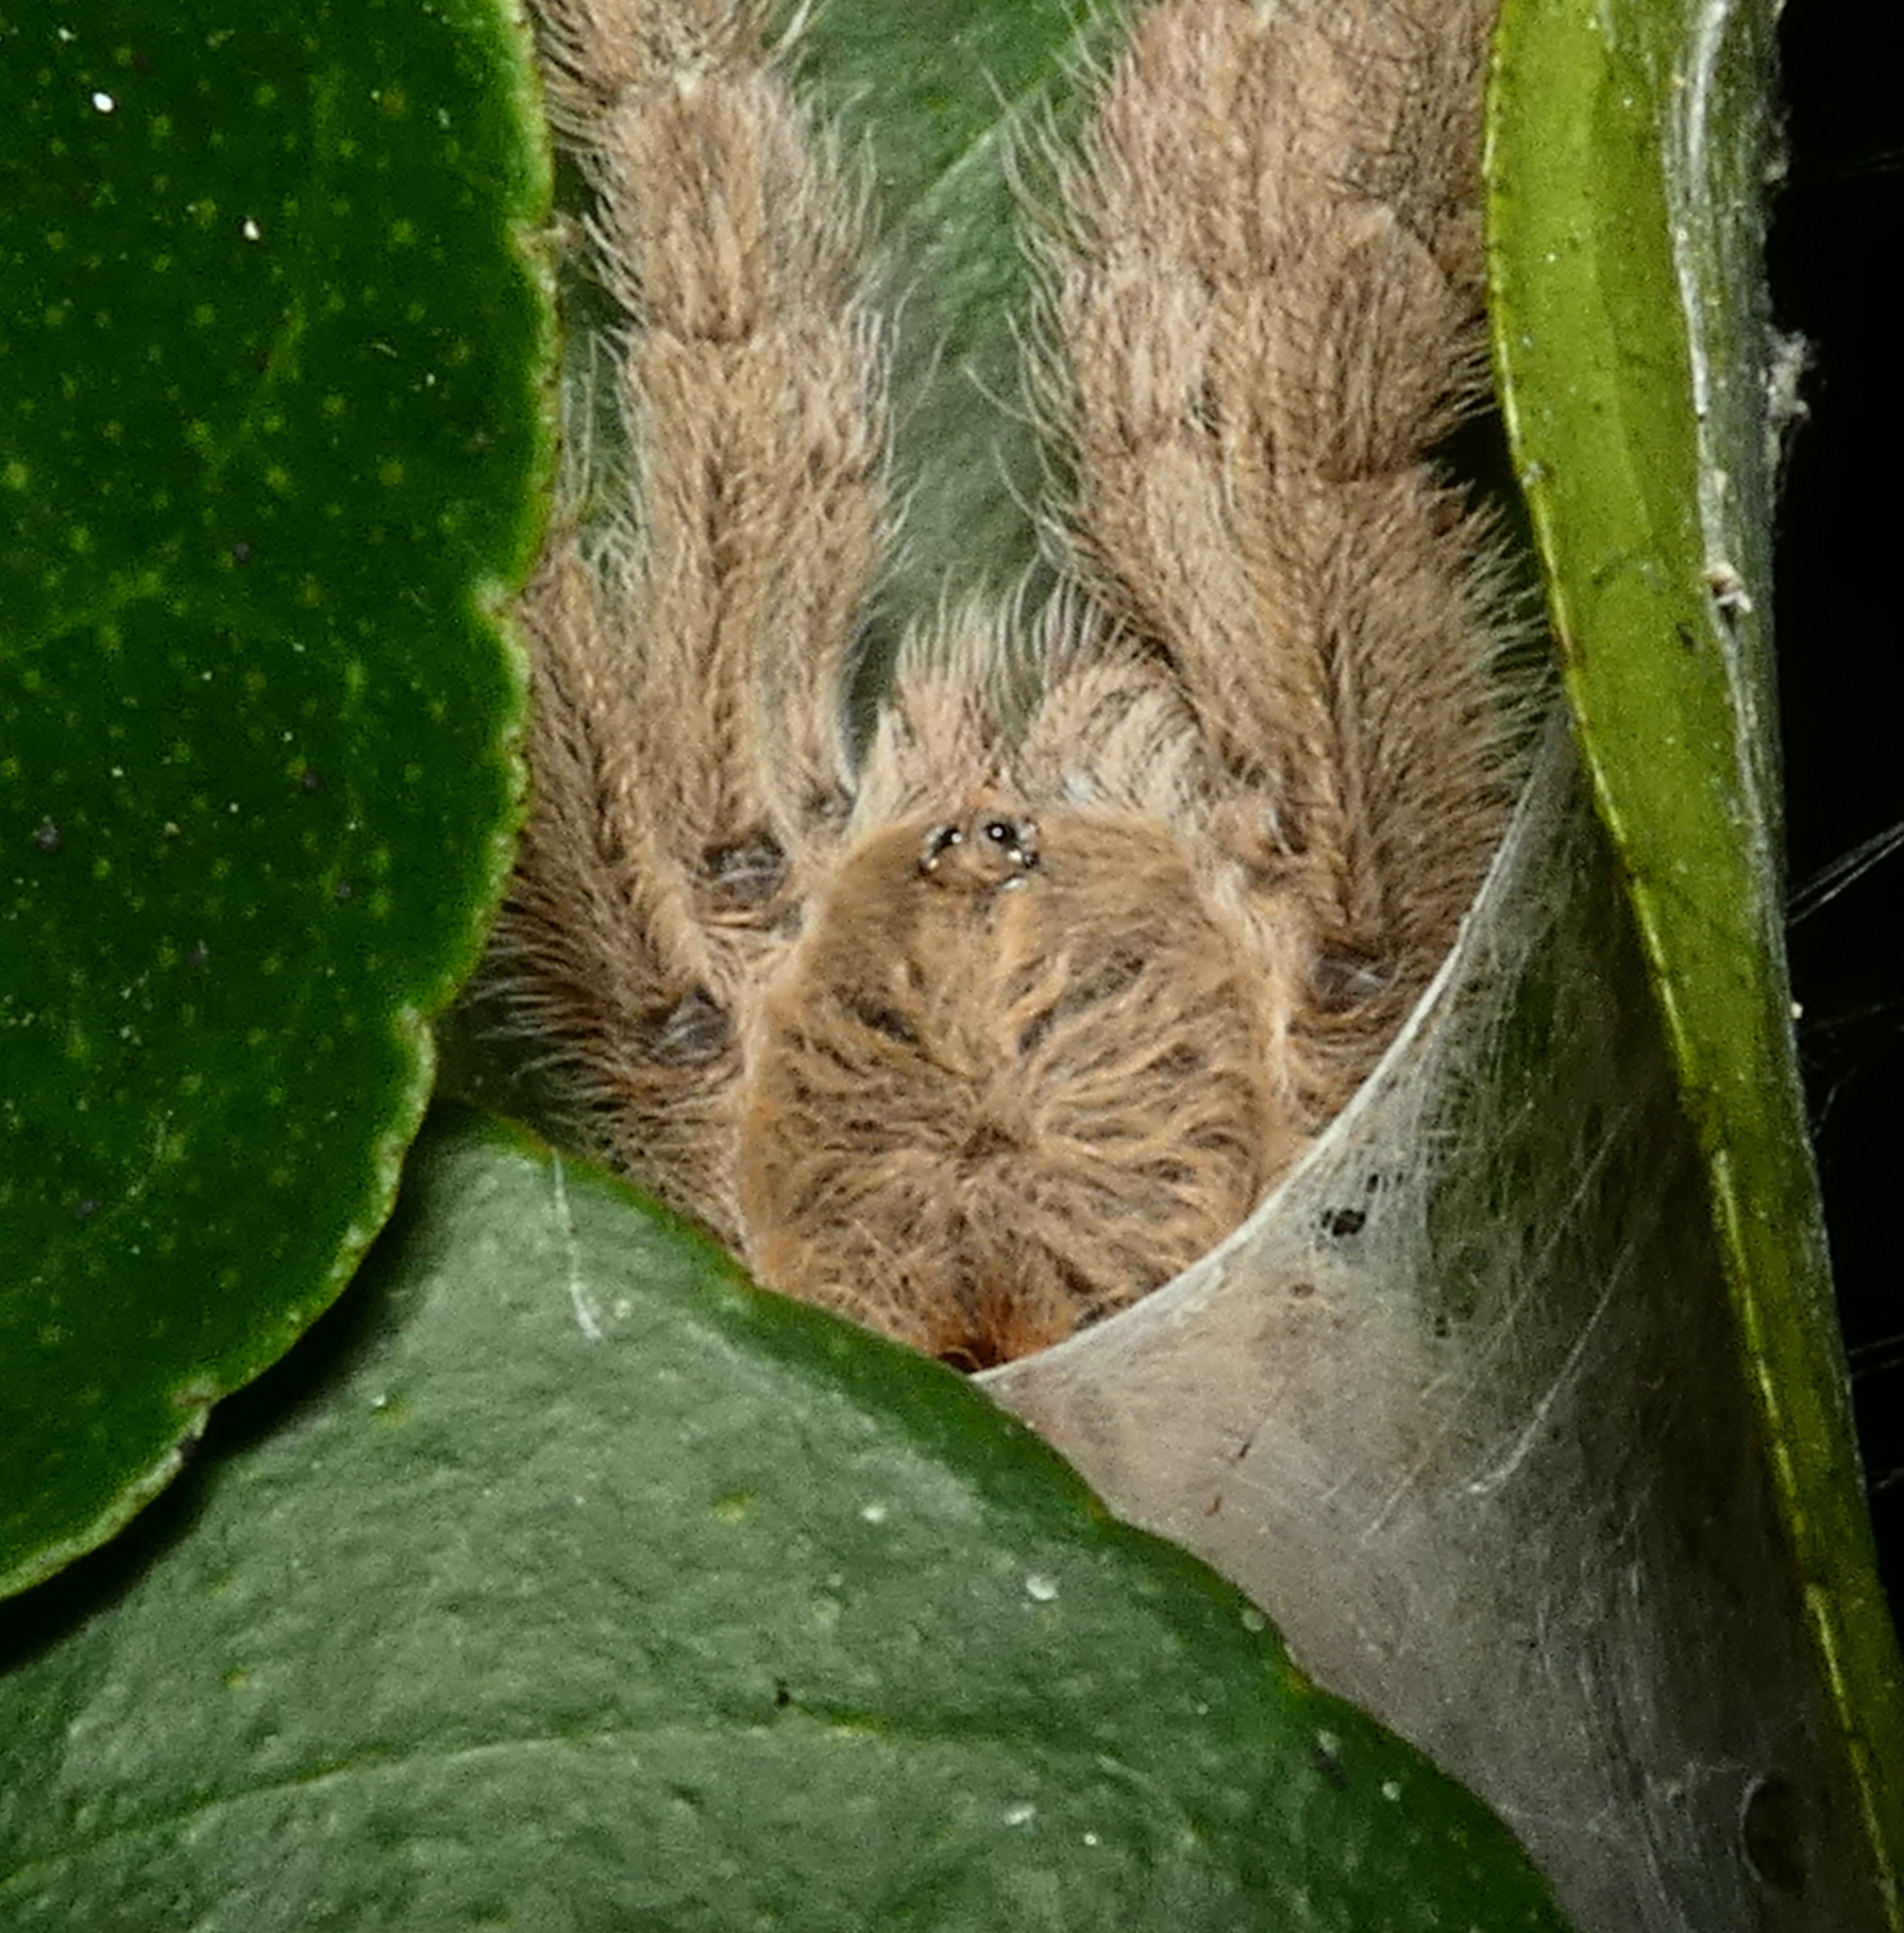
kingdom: Animalia
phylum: Arthropoda
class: Arachnida
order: Araneae
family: Theraphosidae
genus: Iridopelma
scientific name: Iridopelma hirsutum
